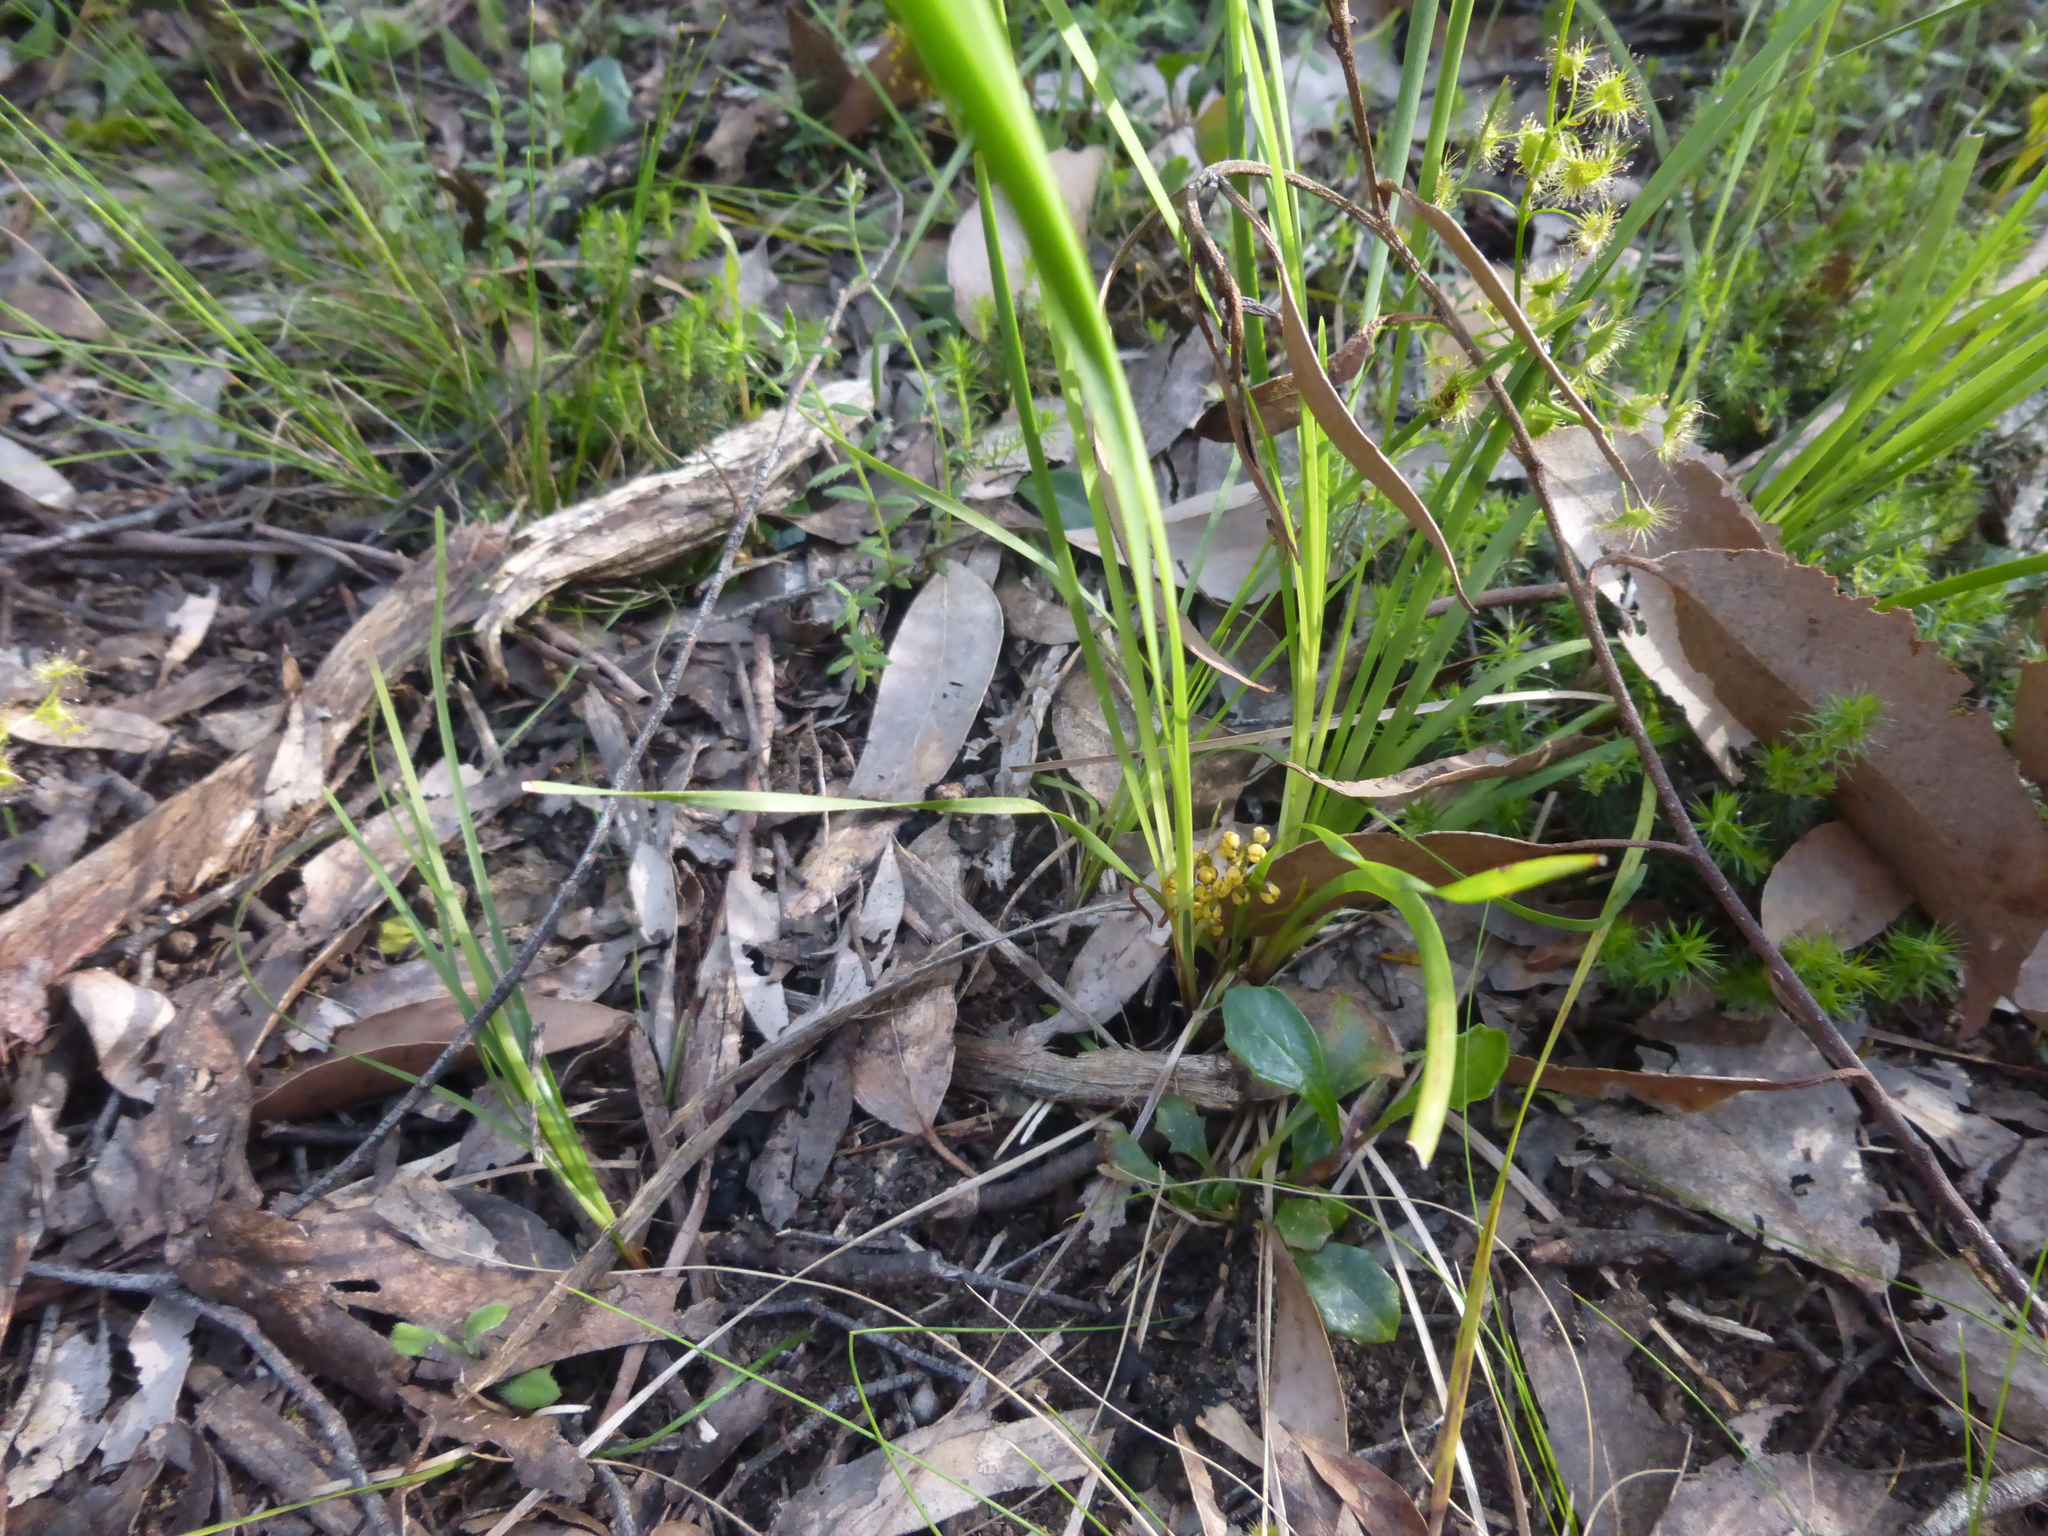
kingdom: Plantae
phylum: Tracheophyta
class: Liliopsida
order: Asparagales
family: Asparagaceae
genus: Lomandra
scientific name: Lomandra filiformis
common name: Wattle mat-rush
